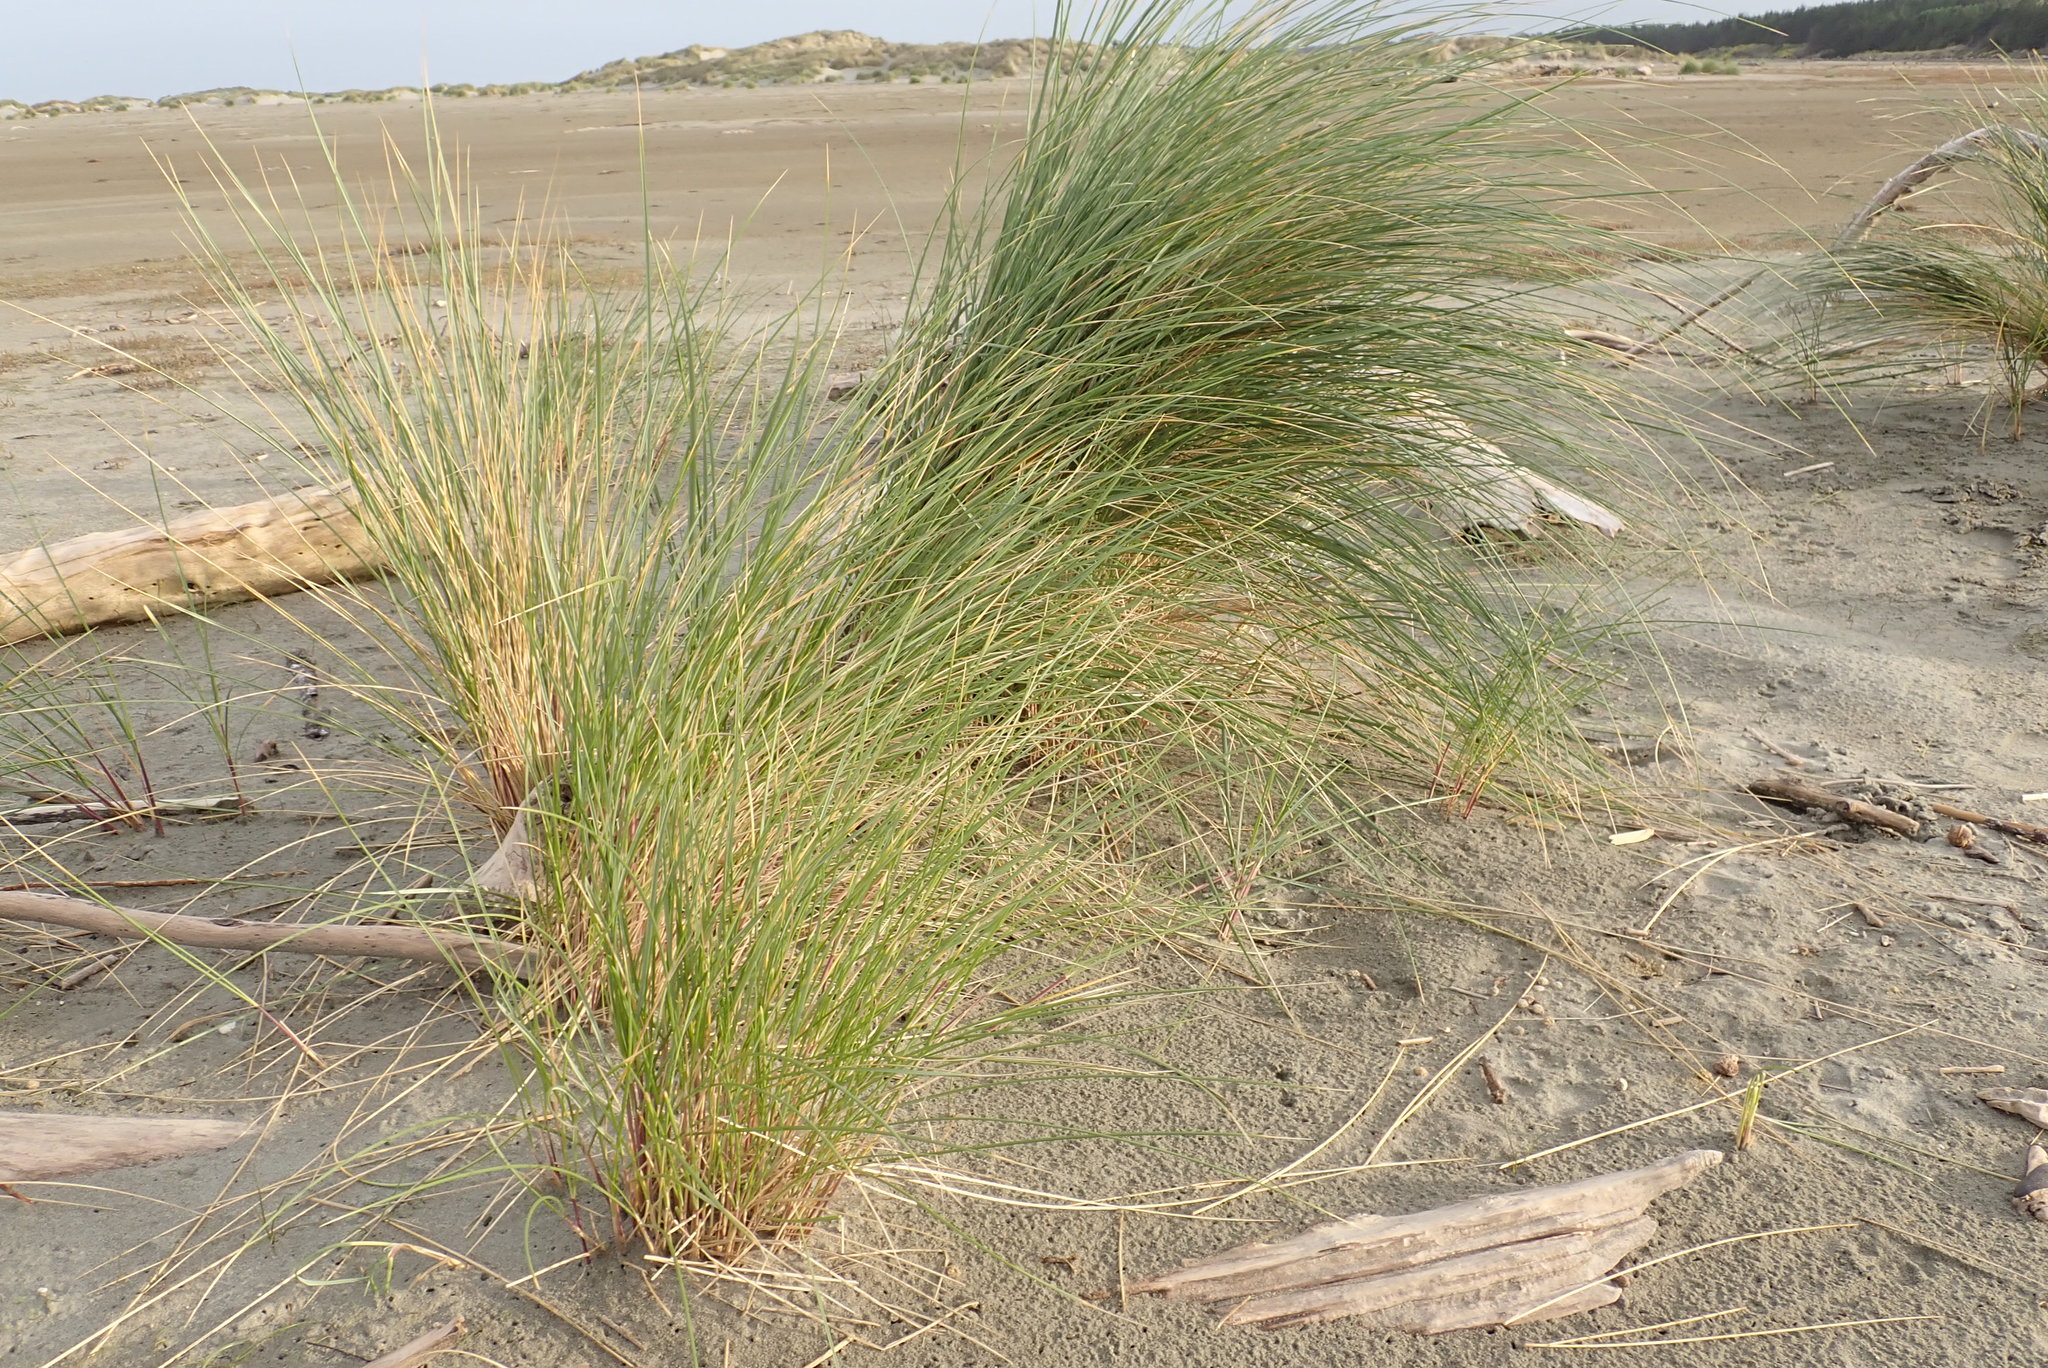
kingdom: Plantae
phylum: Tracheophyta
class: Liliopsida
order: Poales
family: Poaceae
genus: Calamagrostis
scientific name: Calamagrostis arenaria
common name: European beachgrass
